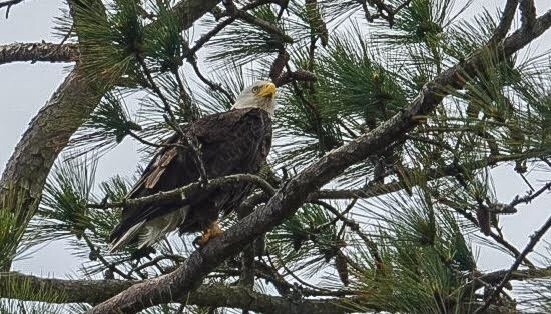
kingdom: Animalia
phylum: Chordata
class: Aves
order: Accipitriformes
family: Accipitridae
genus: Haliaeetus
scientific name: Haliaeetus leucocephalus
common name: Bald eagle
